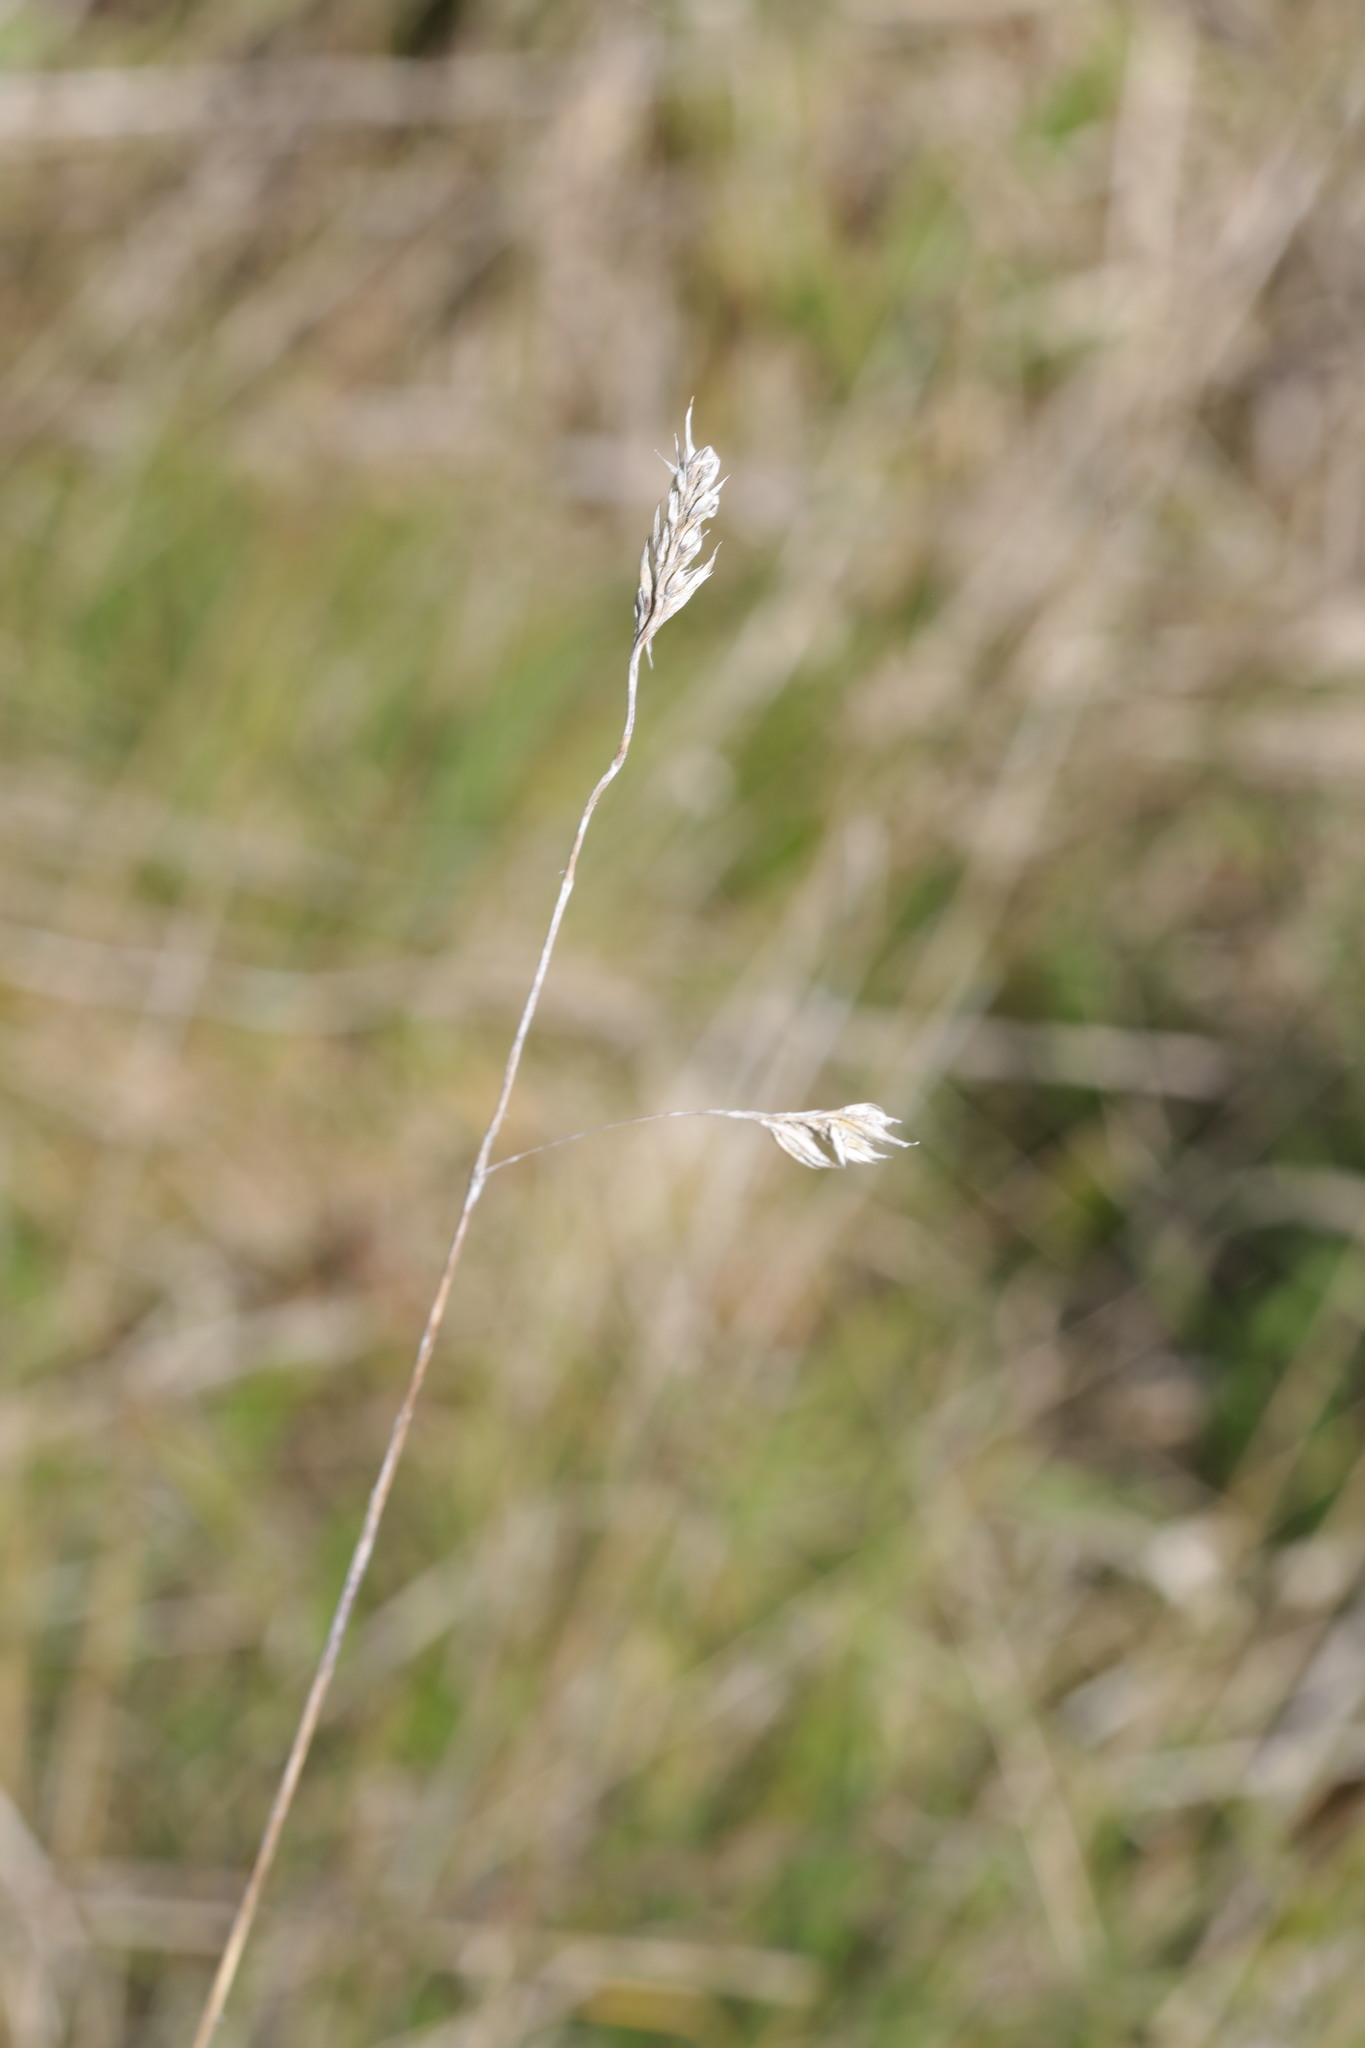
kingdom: Plantae
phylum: Tracheophyta
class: Liliopsida
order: Poales
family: Poaceae
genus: Dactylis
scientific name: Dactylis glomerata
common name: Orchardgrass
